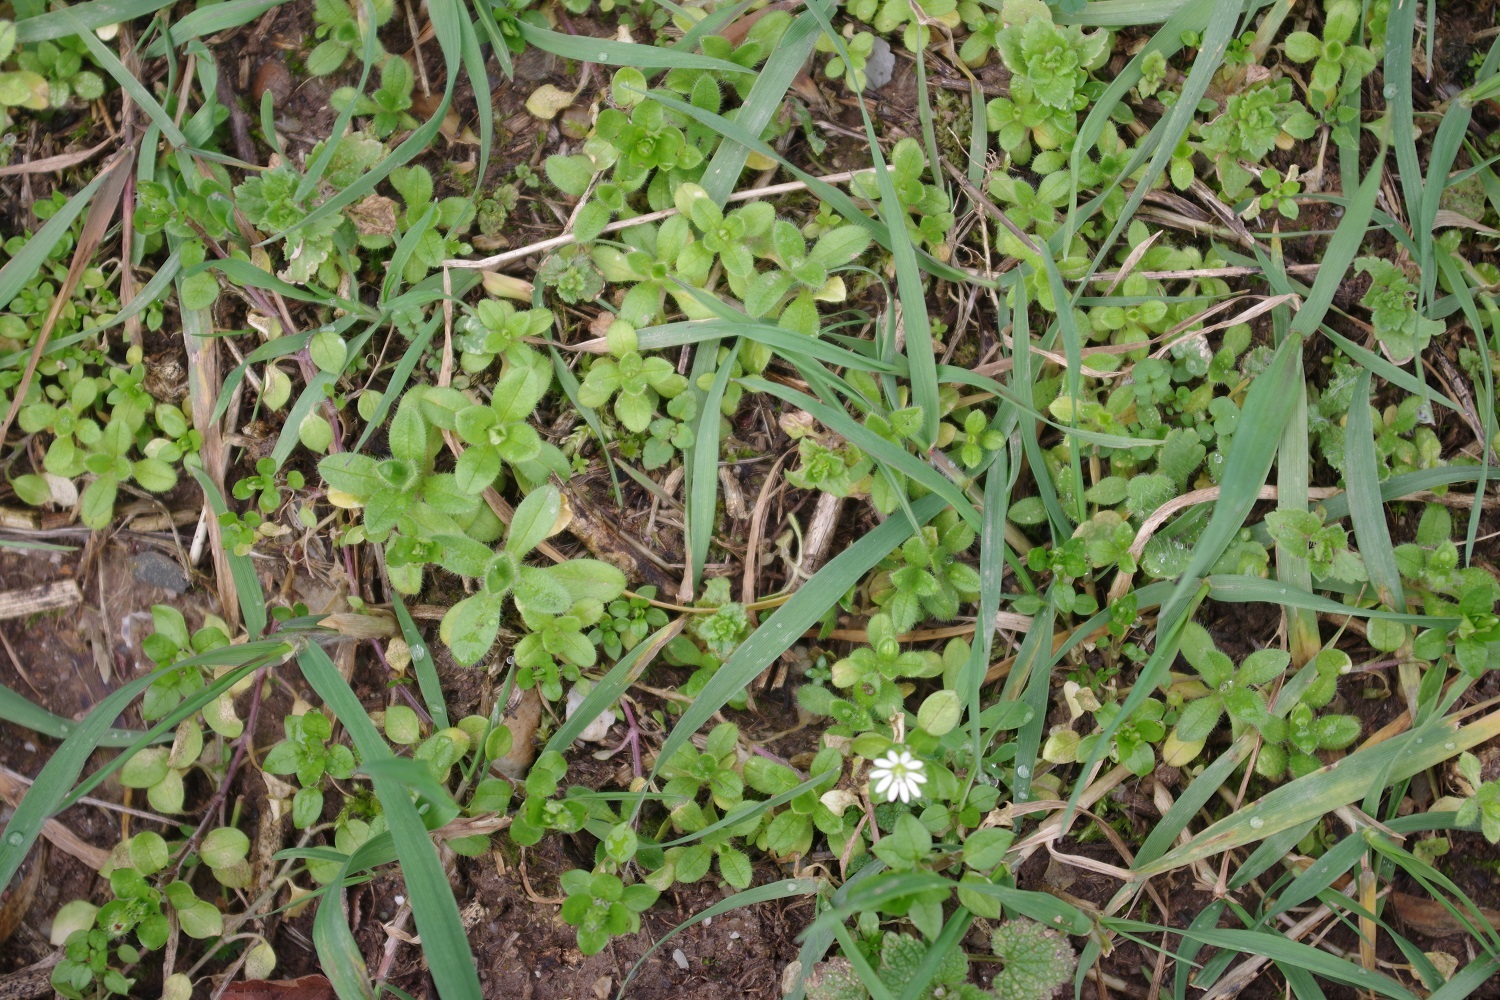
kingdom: Plantae
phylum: Tracheophyta
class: Magnoliopsida
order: Caryophyllales
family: Caryophyllaceae
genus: Stellaria
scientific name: Stellaria
